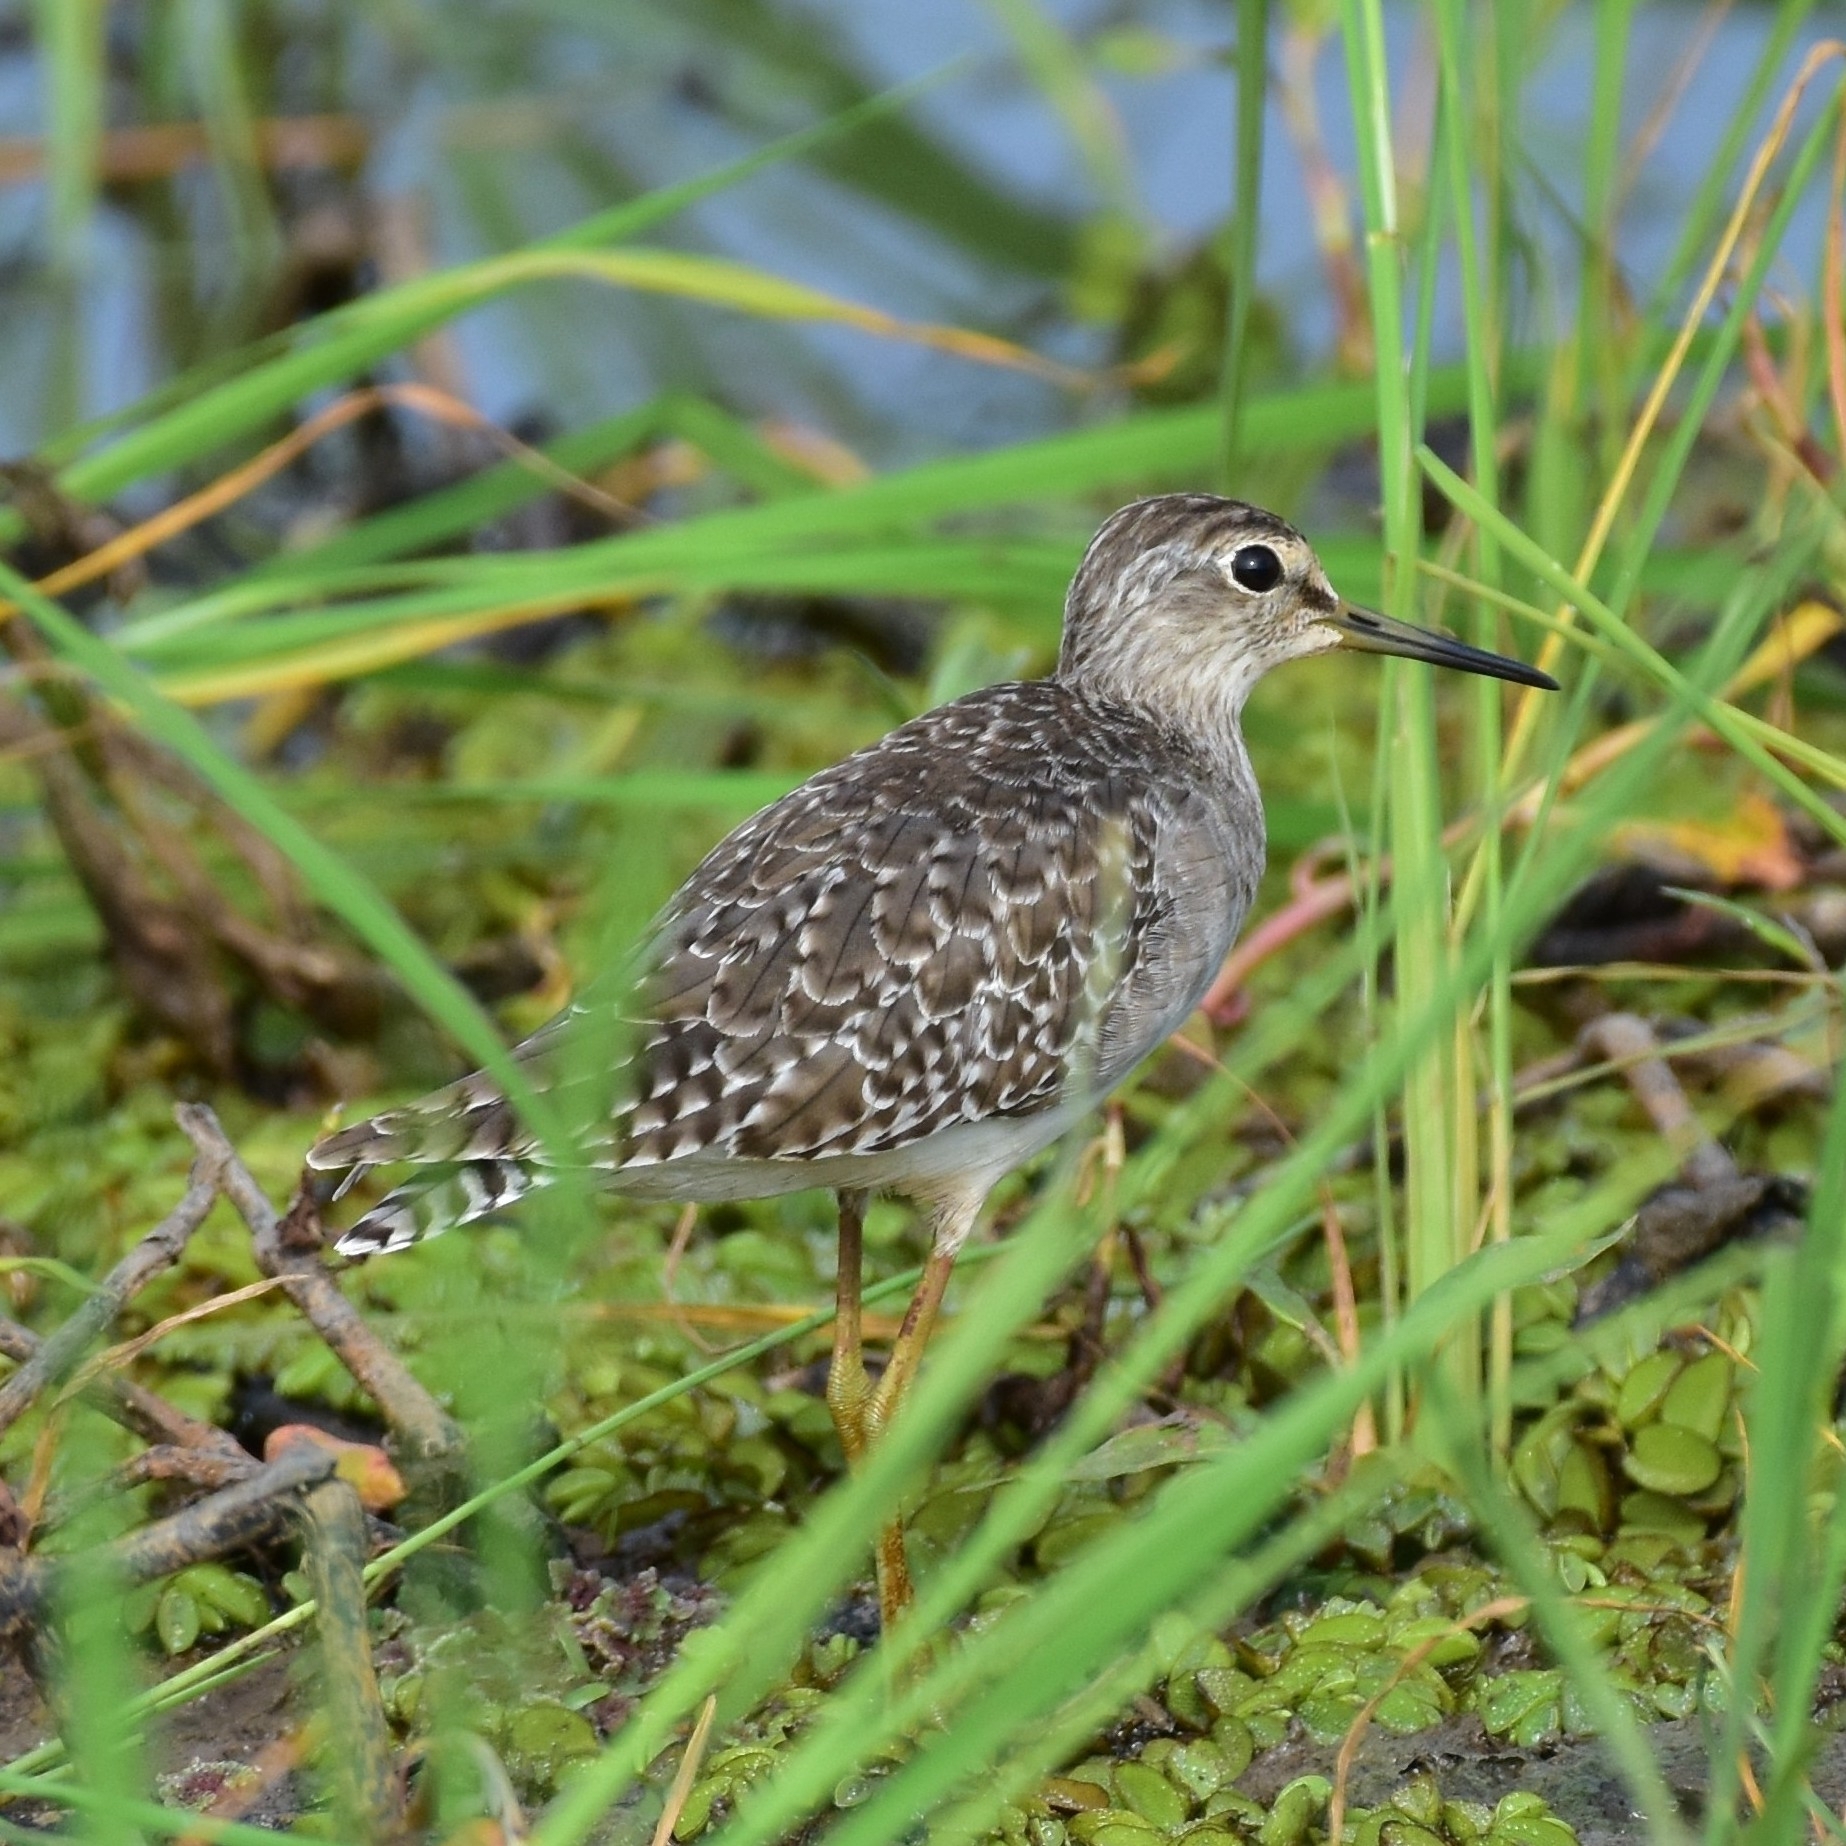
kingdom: Animalia
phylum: Chordata
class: Aves
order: Charadriiformes
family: Scolopacidae
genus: Tringa
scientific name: Tringa glareola
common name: Wood sandpiper
